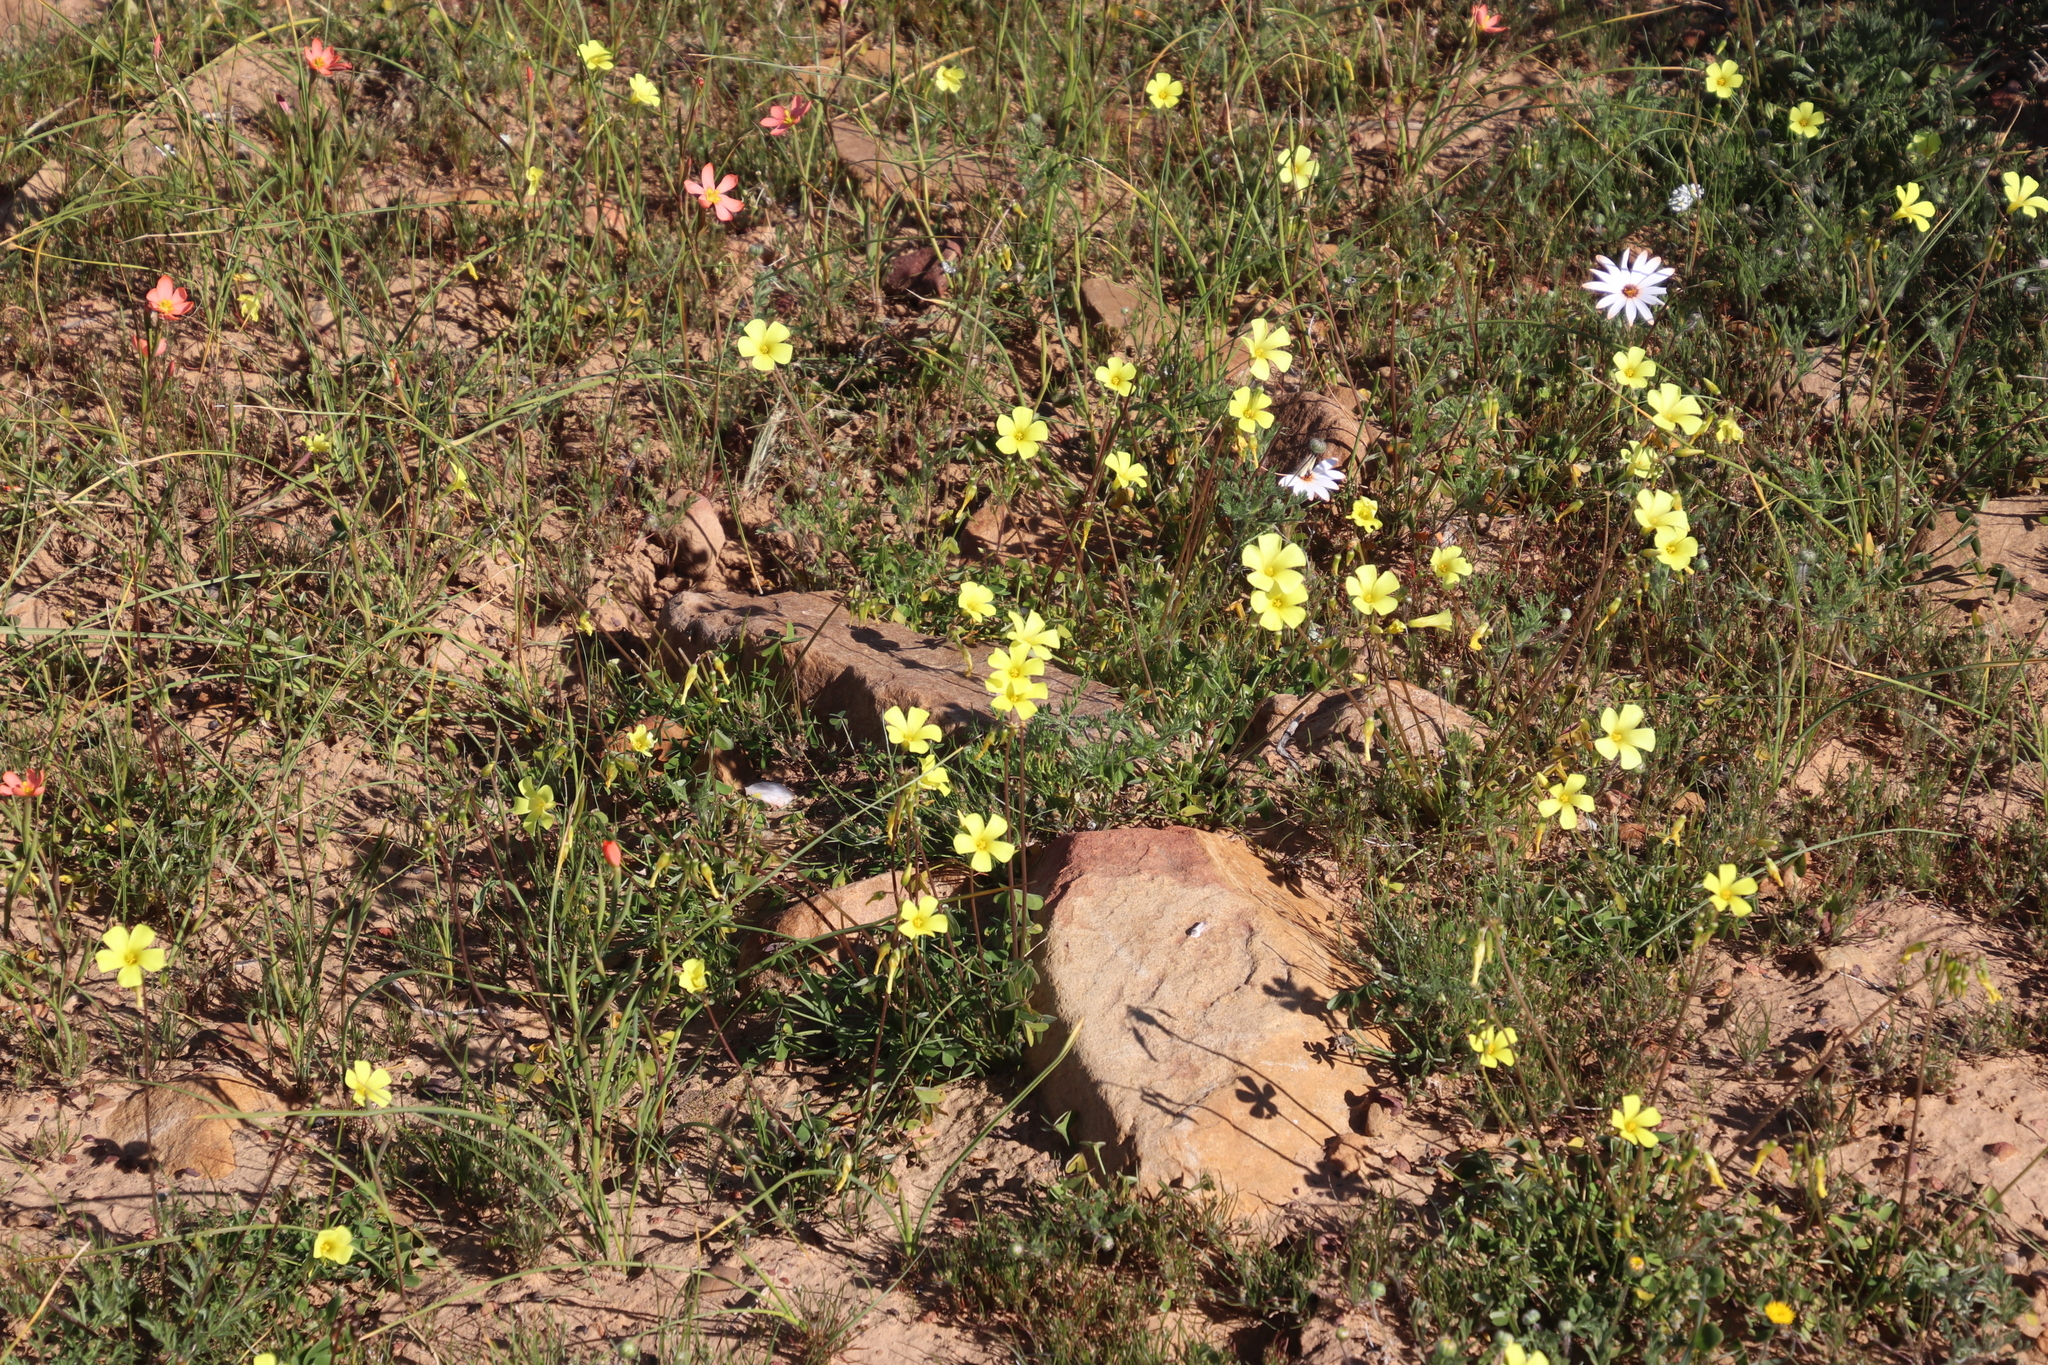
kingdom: Plantae
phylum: Tracheophyta
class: Magnoliopsida
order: Oxalidales
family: Oxalidaceae
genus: Oxalis
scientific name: Oxalis pes-caprae
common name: Bermuda-buttercup
